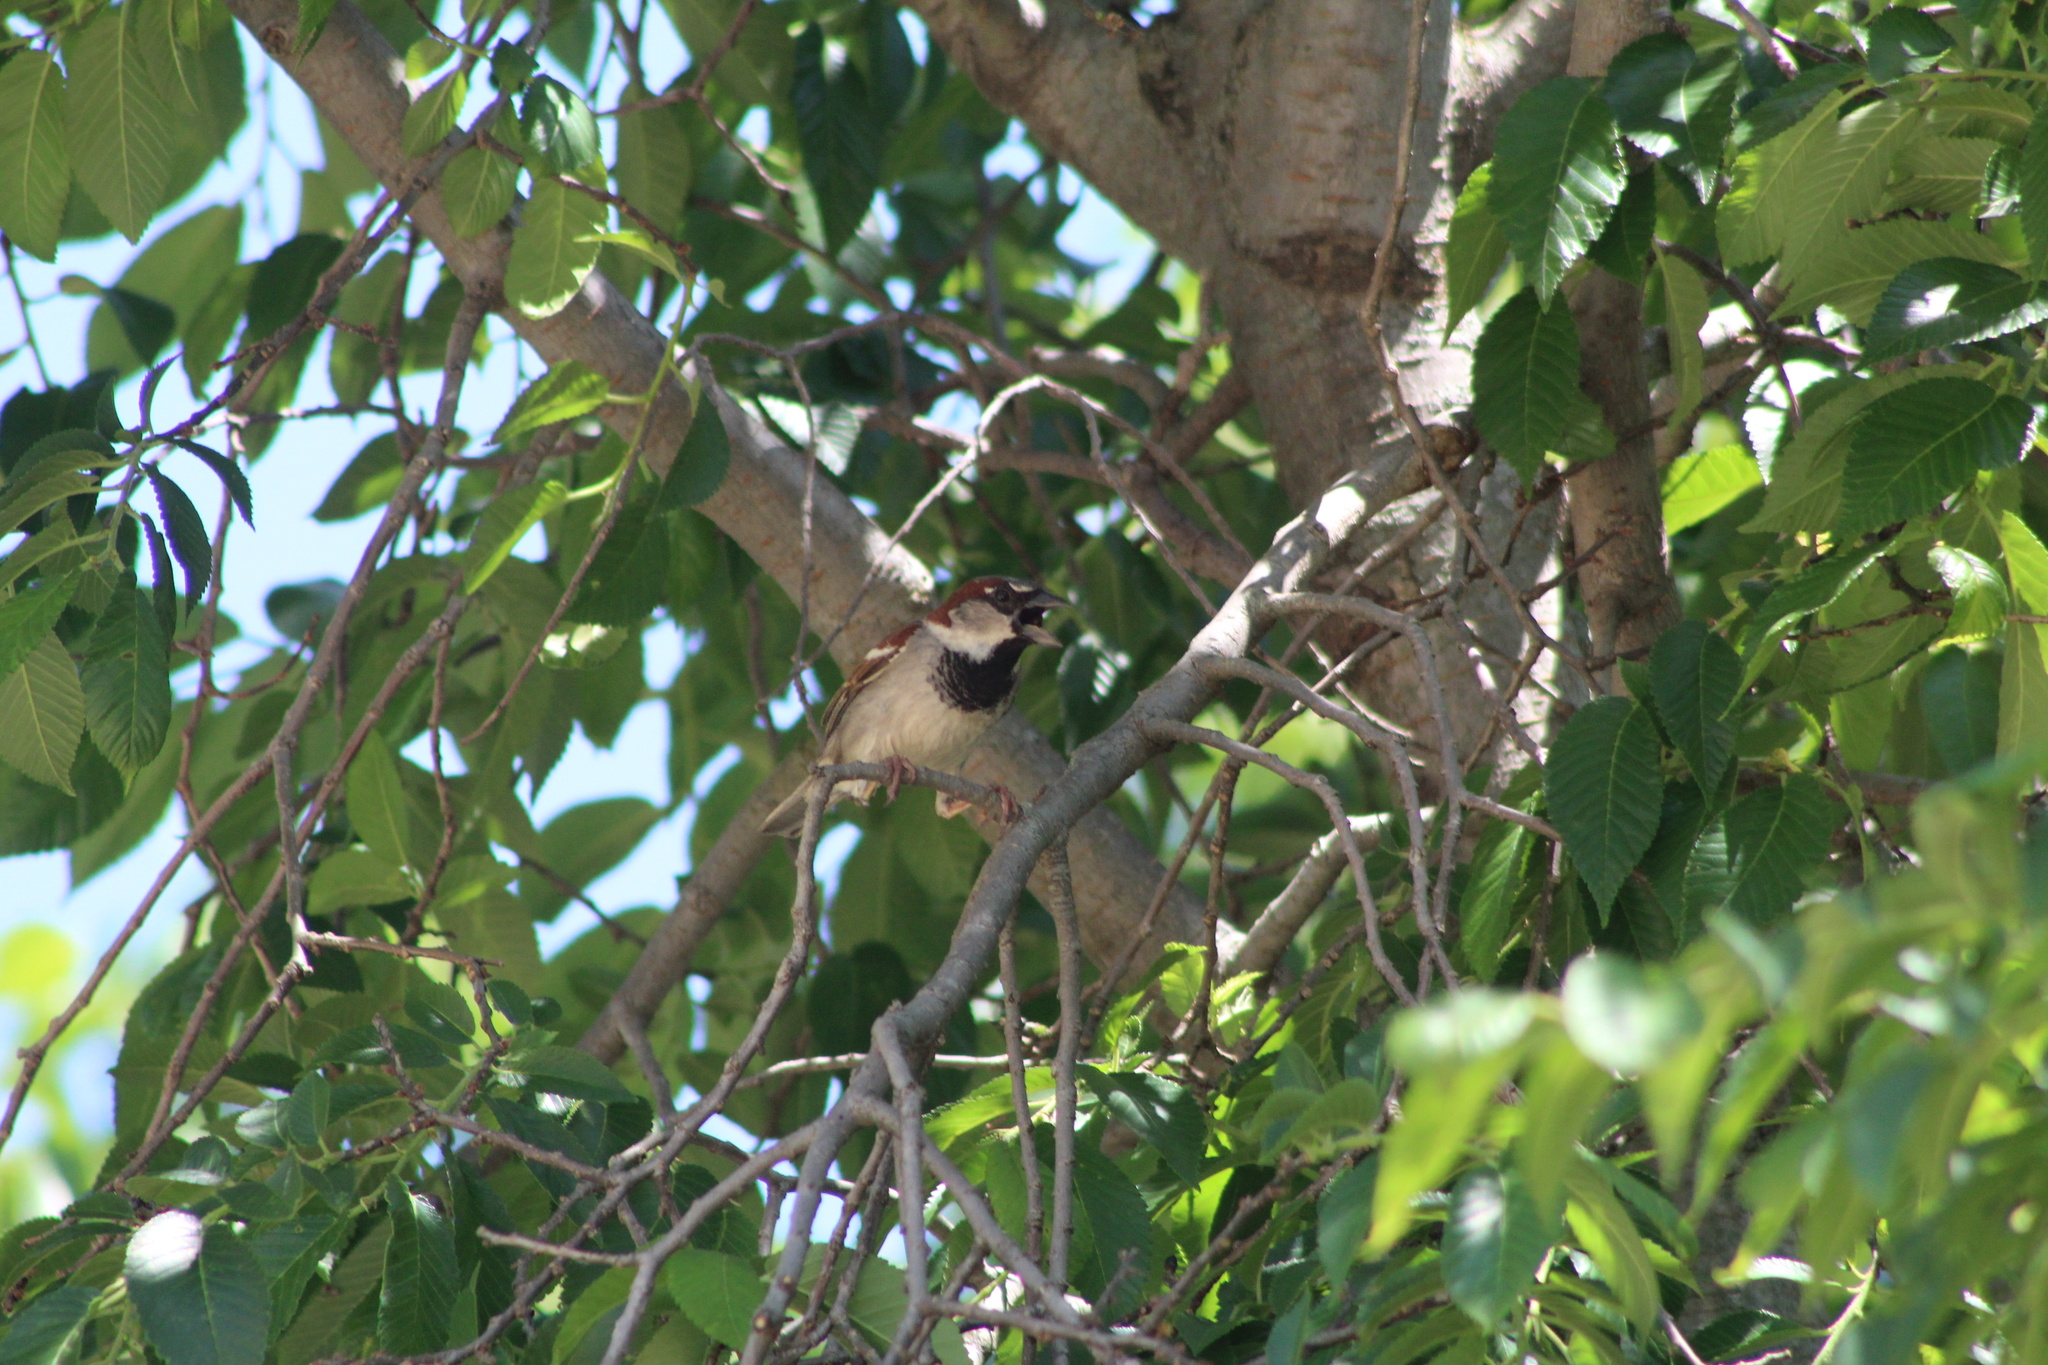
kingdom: Animalia
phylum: Chordata
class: Aves
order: Passeriformes
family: Passeridae
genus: Passer
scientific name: Passer domesticus
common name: House sparrow
